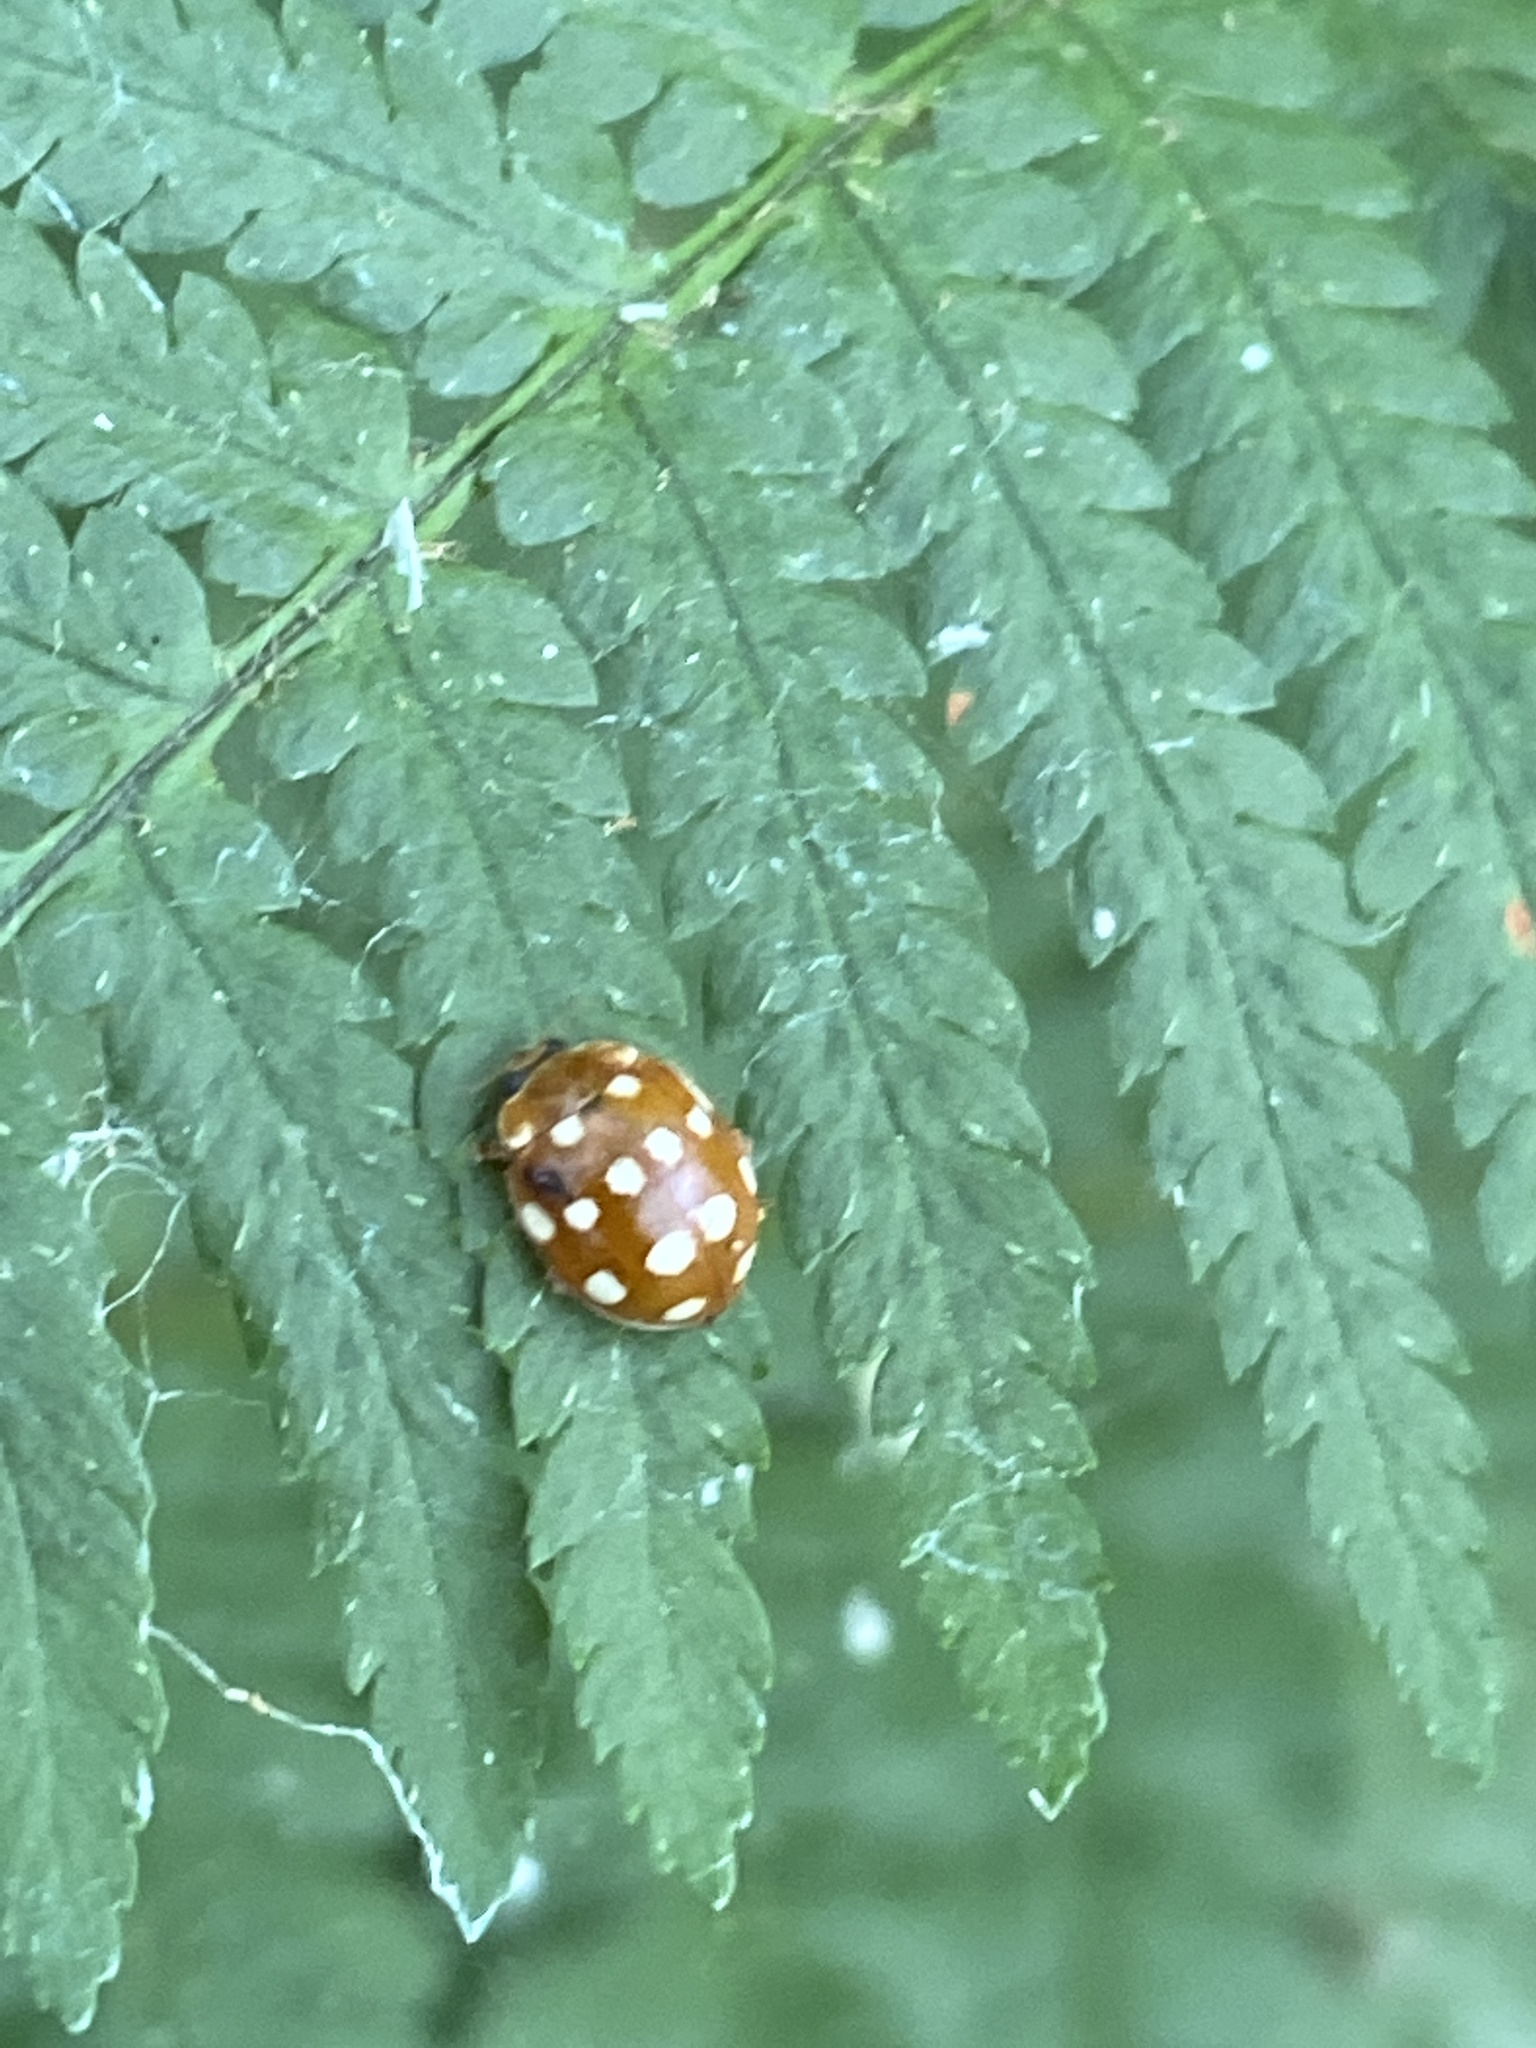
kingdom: Animalia
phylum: Arthropoda
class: Insecta
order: Coleoptera
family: Coccinellidae
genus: Calvia
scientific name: Calvia quatuordecimguttata
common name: Cream-spot ladybird
